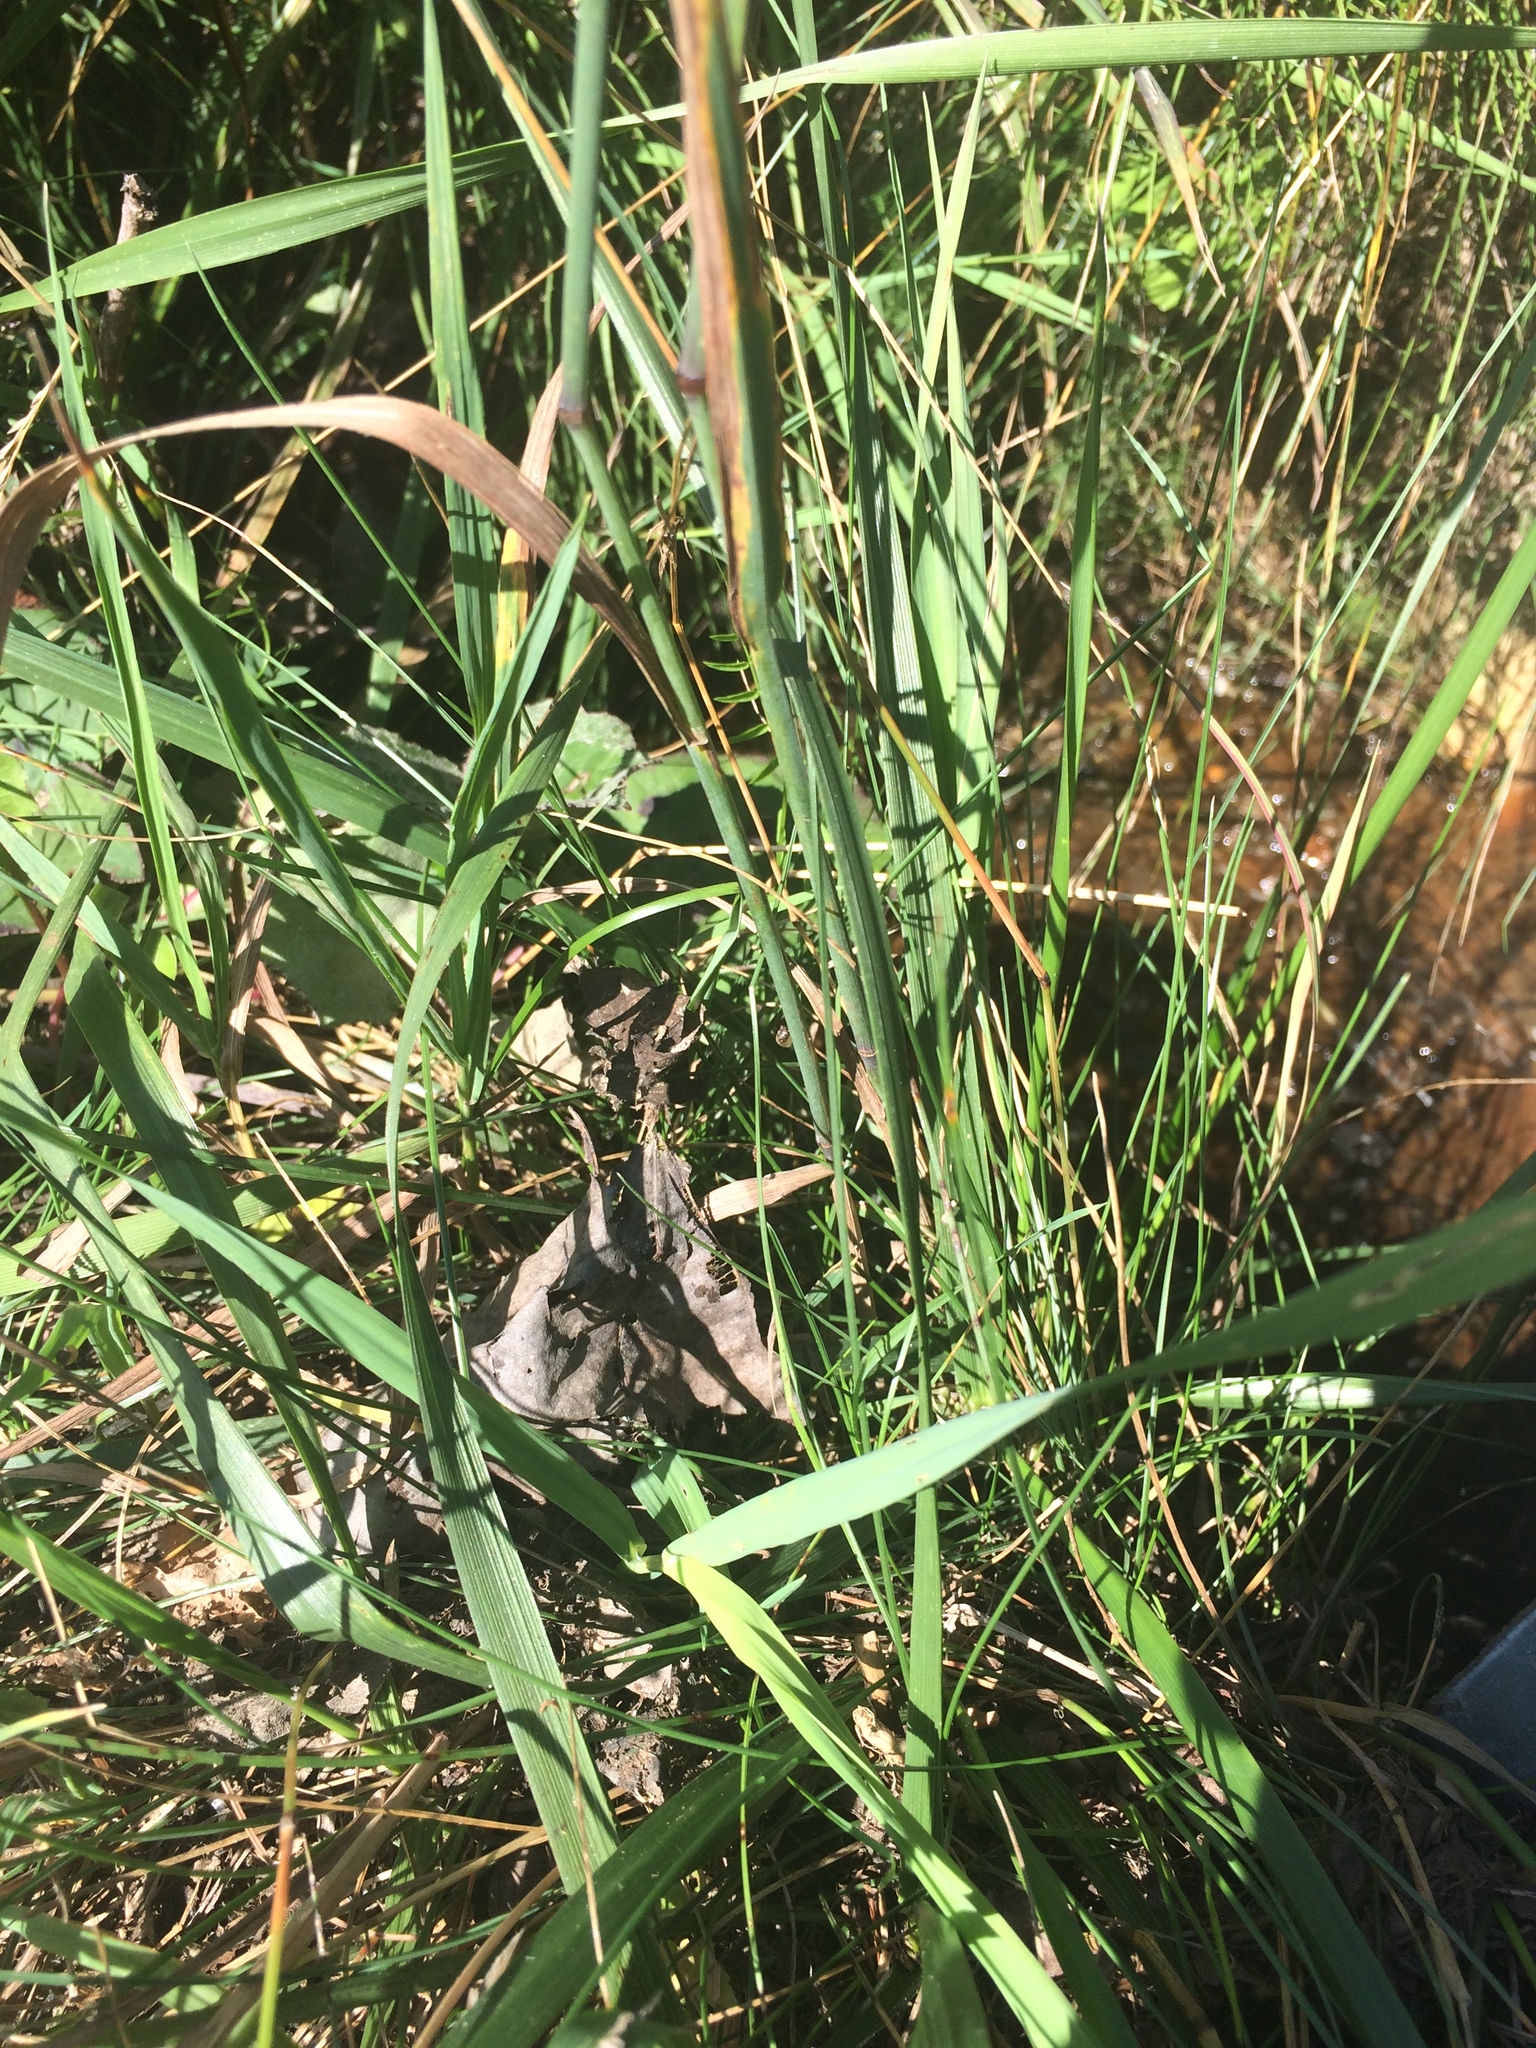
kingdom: Plantae
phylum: Tracheophyta
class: Liliopsida
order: Poales
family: Poaceae
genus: Phleum
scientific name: Phleum pratense
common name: Timothy grass
